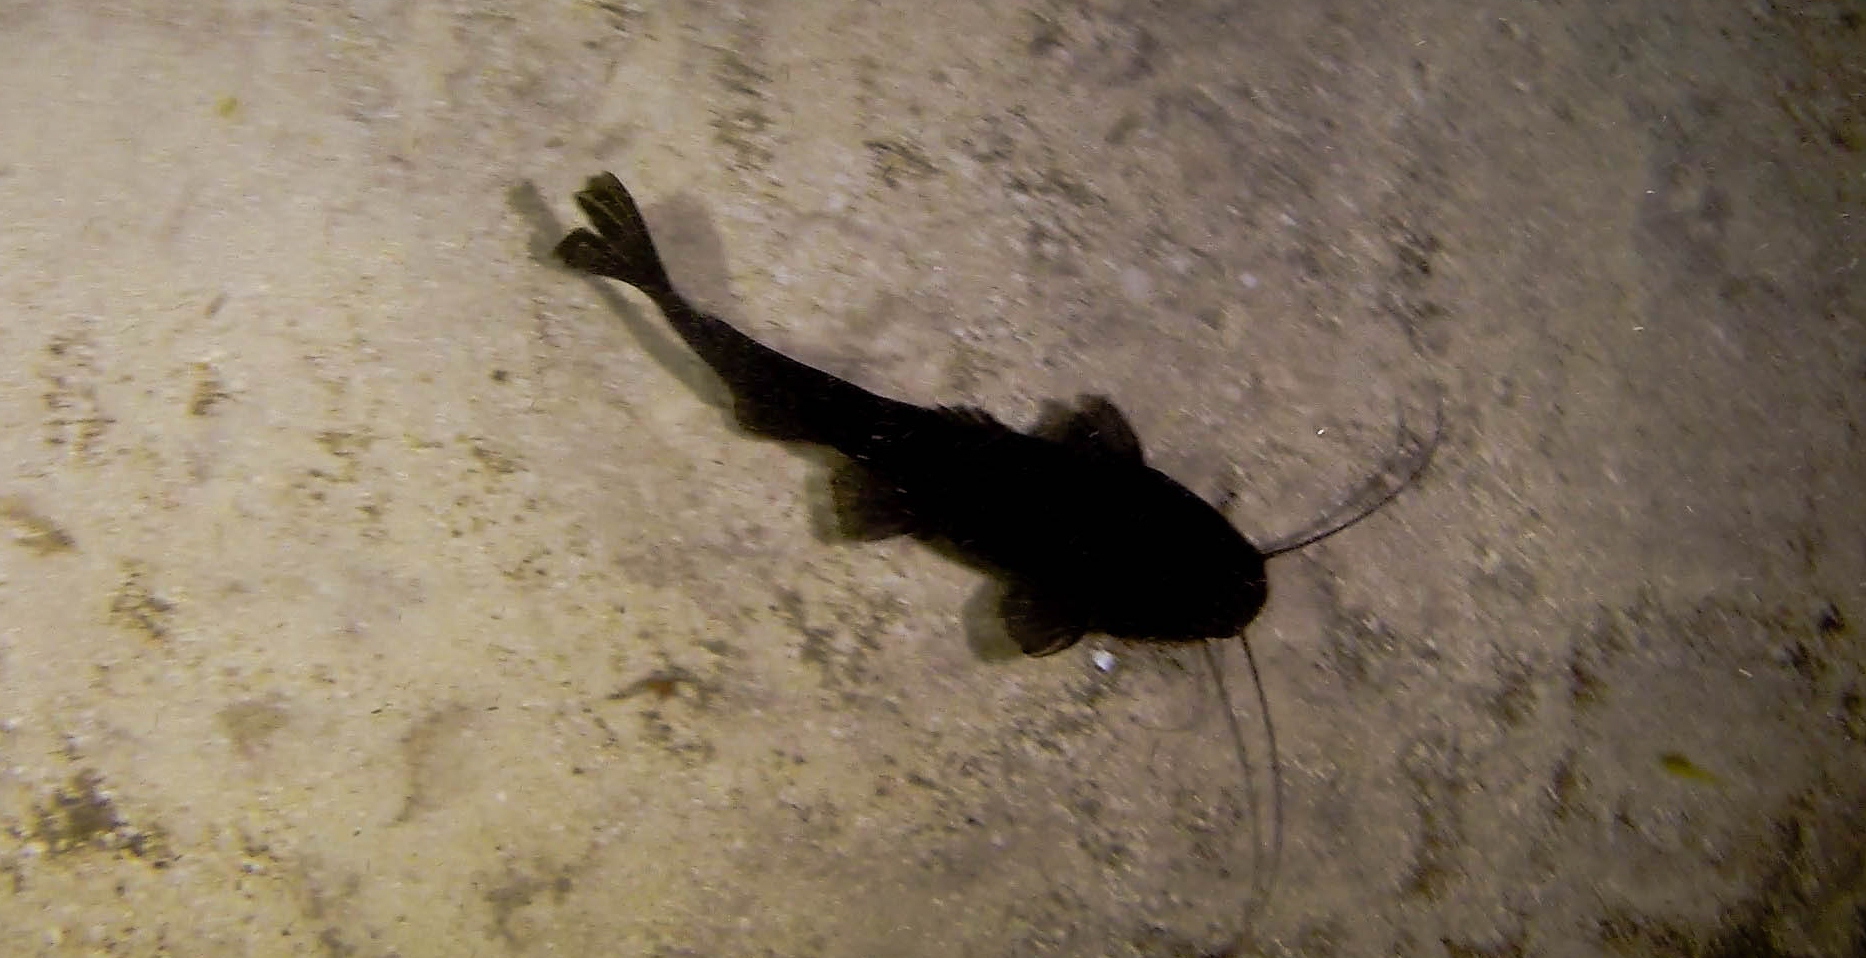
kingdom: Animalia
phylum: Chordata
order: Siluriformes
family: Heptapteridae
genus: Rhamdia
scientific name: Rhamdia guatemalensis
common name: Pale catfish
